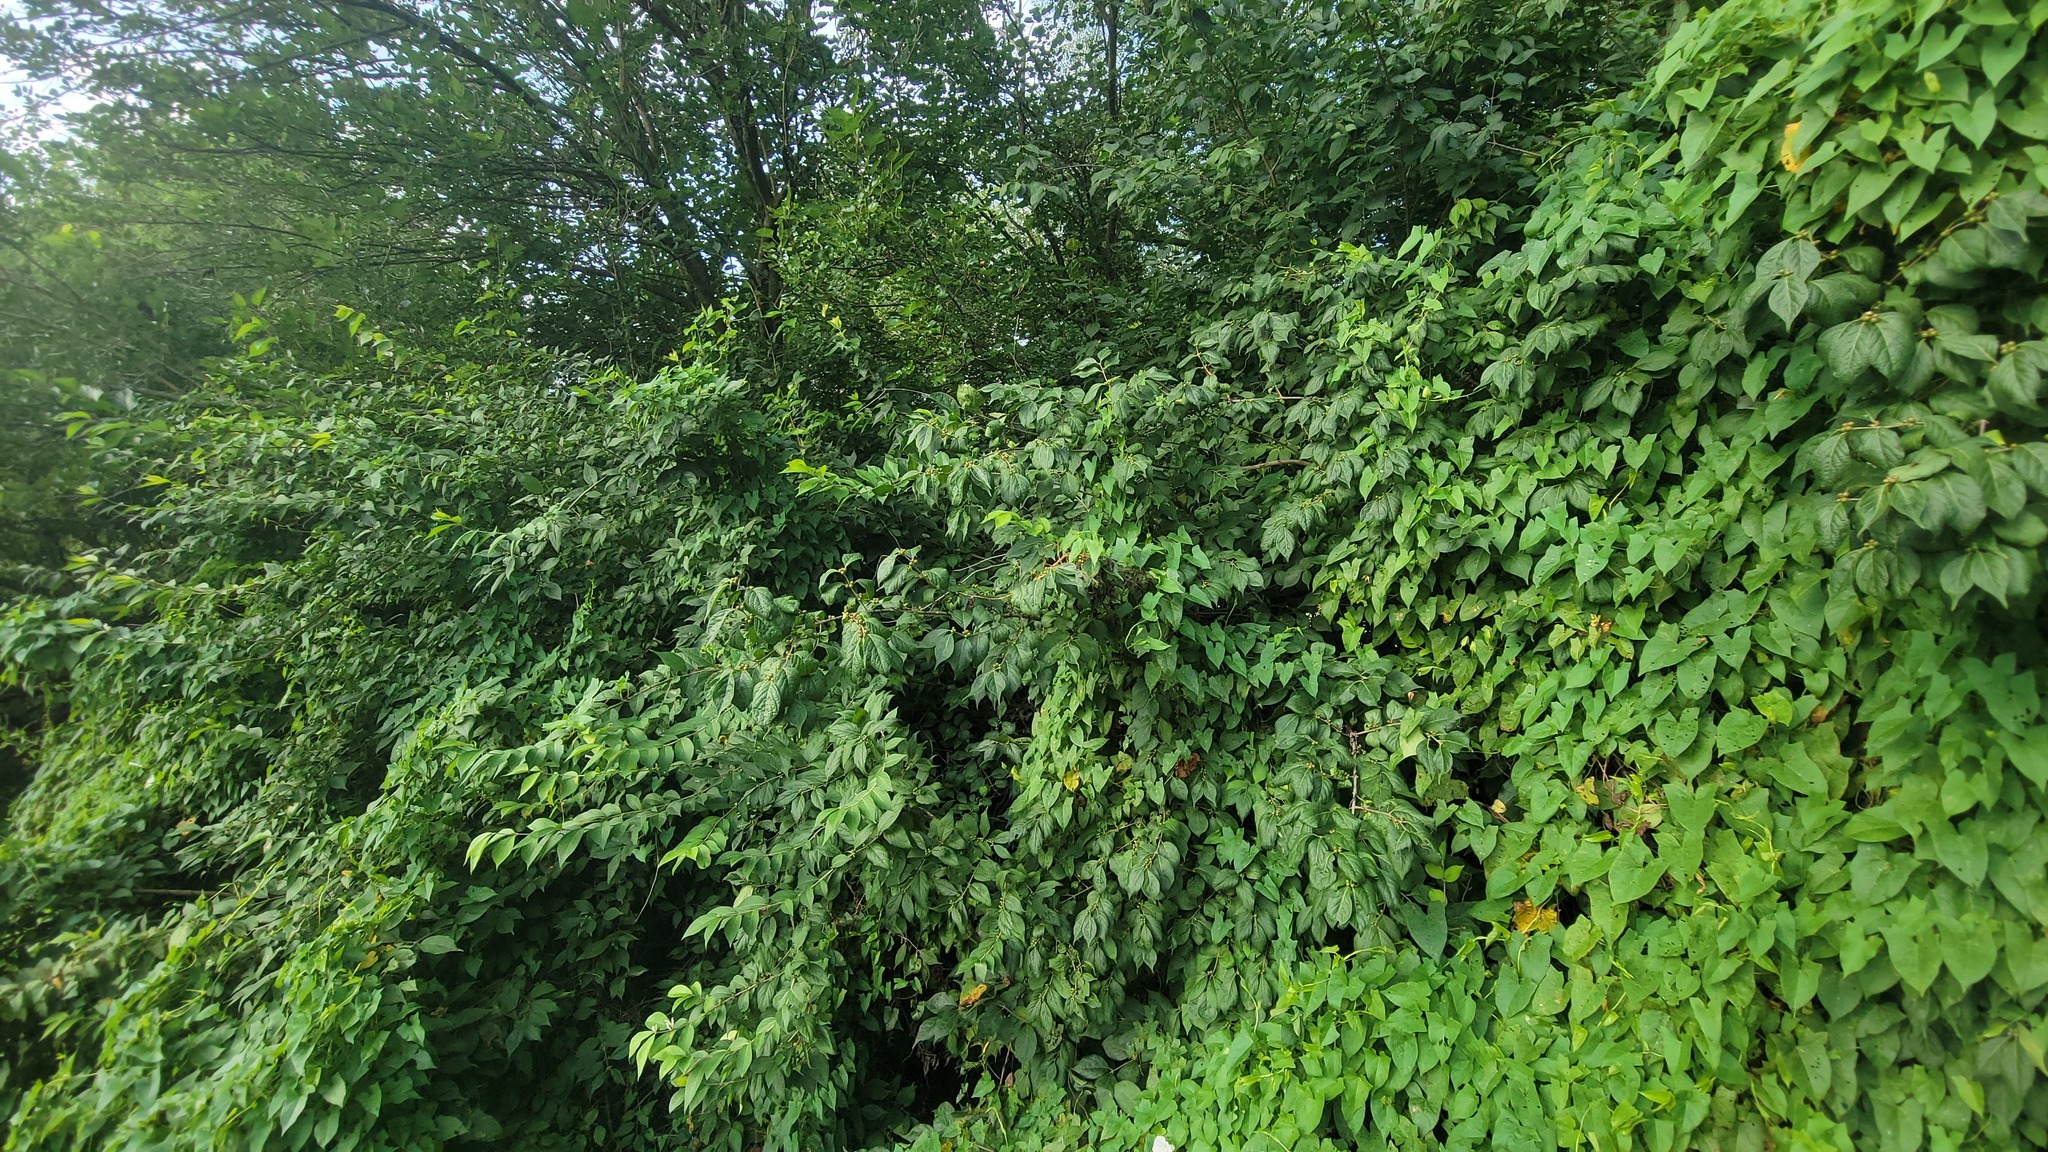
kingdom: Plantae
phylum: Tracheophyta
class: Magnoliopsida
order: Dipsacales
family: Caprifoliaceae
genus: Lonicera
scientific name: Lonicera maackii
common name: Amur honeysuckle
